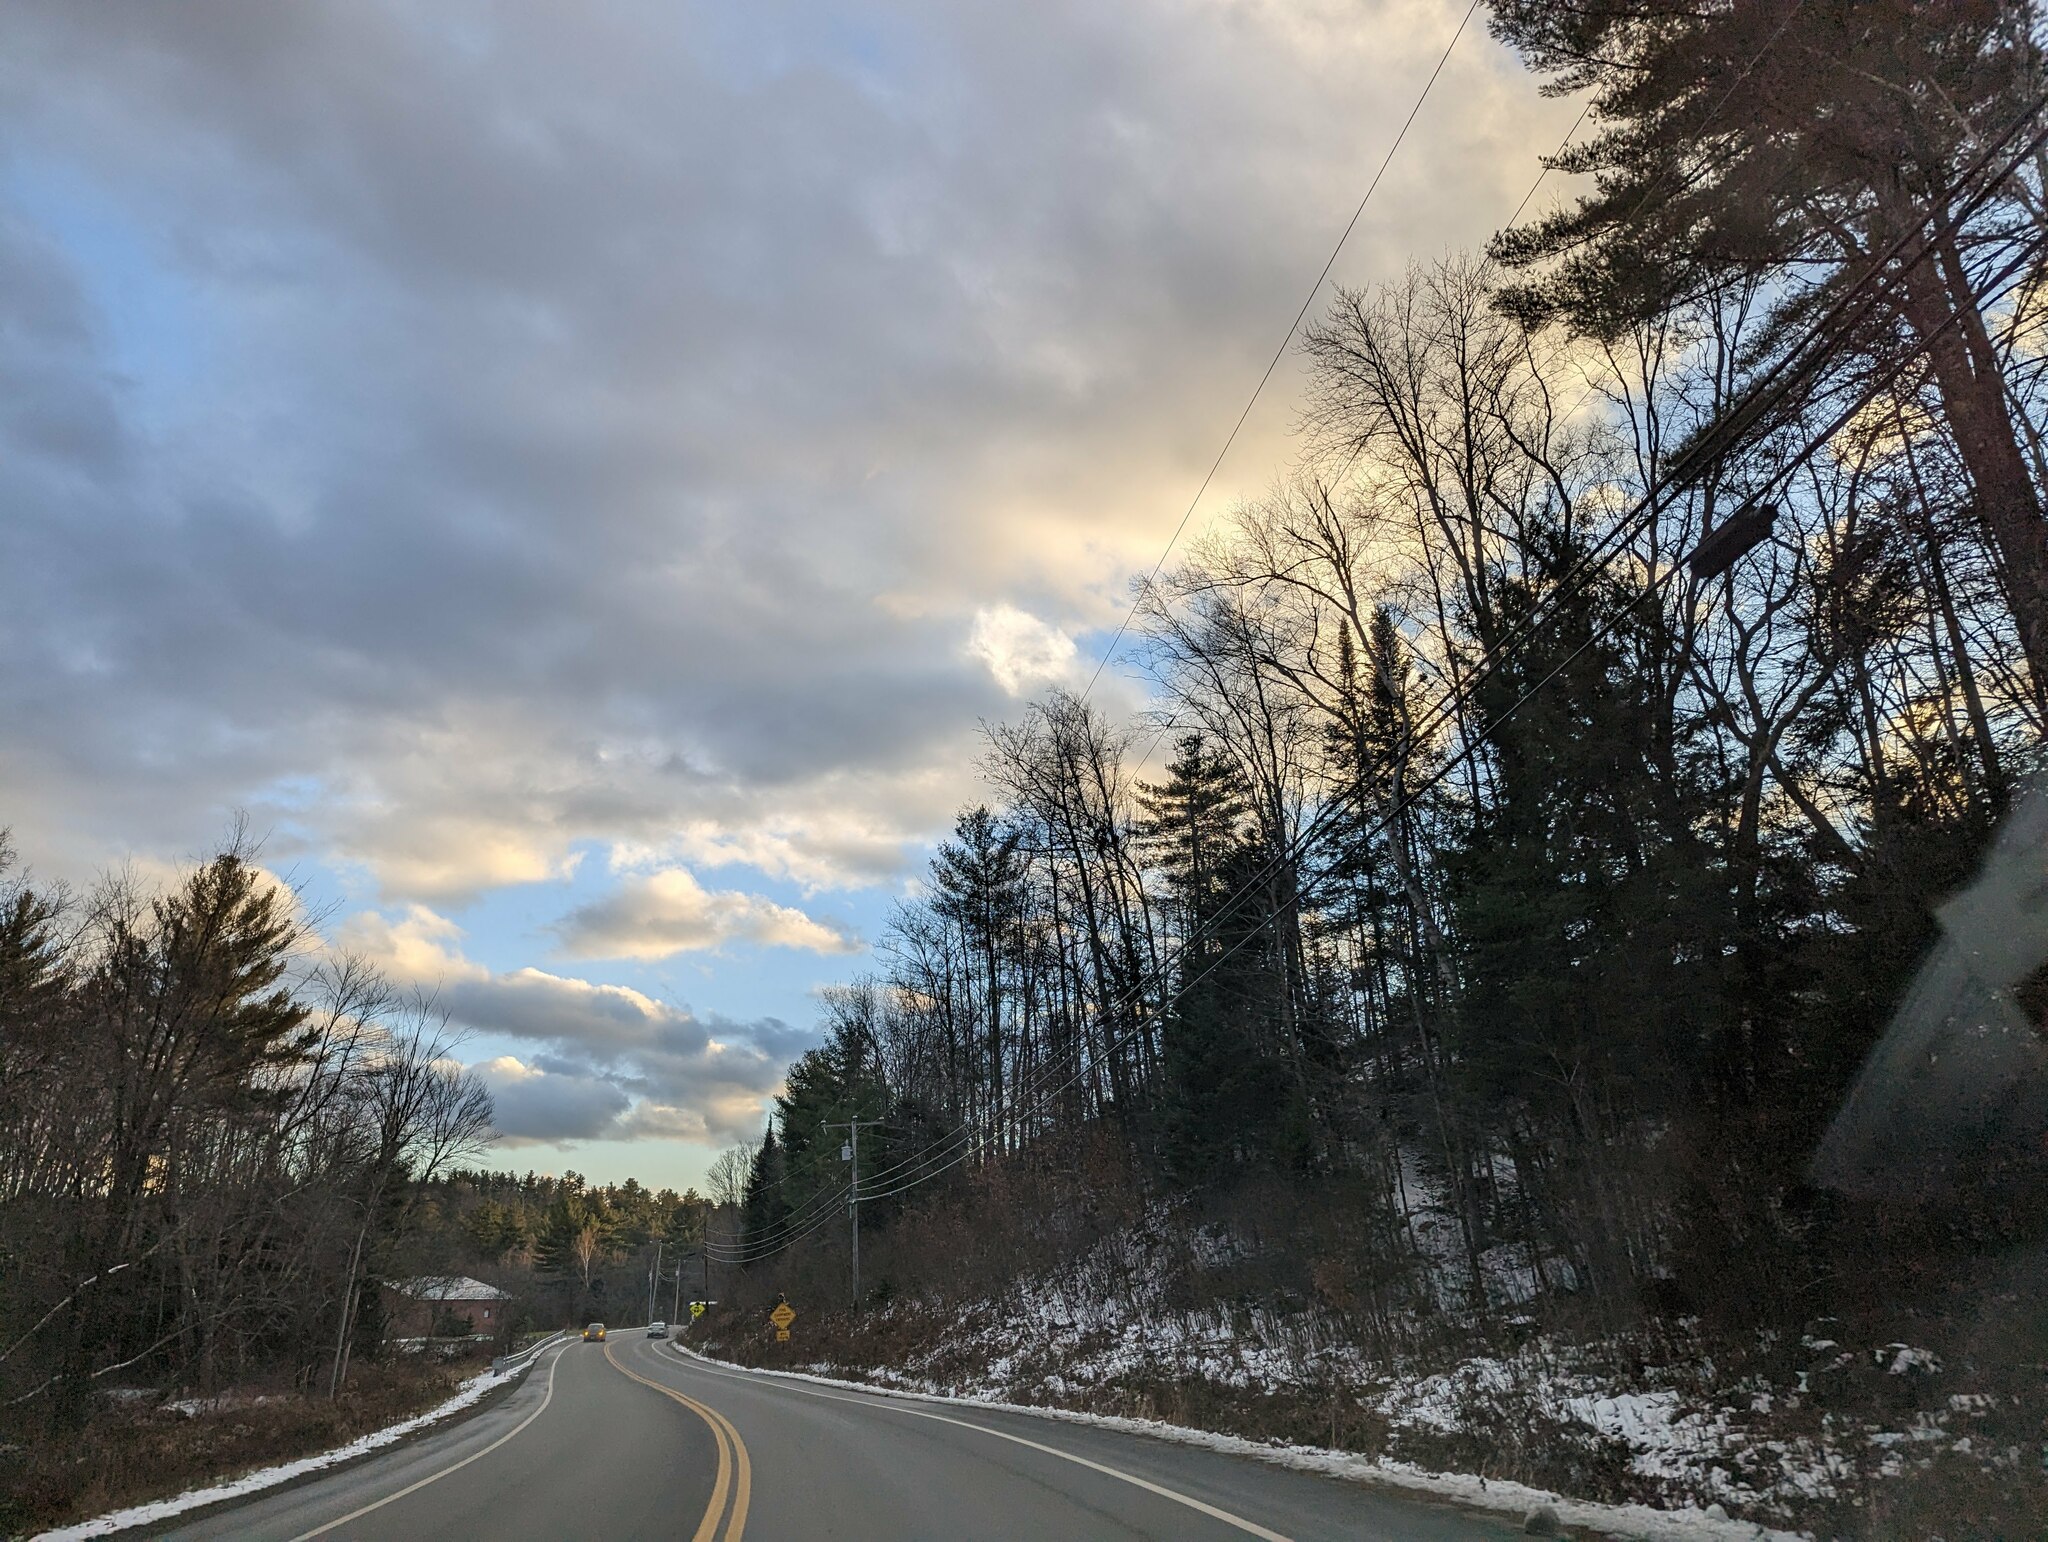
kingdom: Plantae
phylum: Tracheophyta
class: Pinopsida
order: Pinales
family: Pinaceae
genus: Pinus
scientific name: Pinus strobus
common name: Weymouth pine
